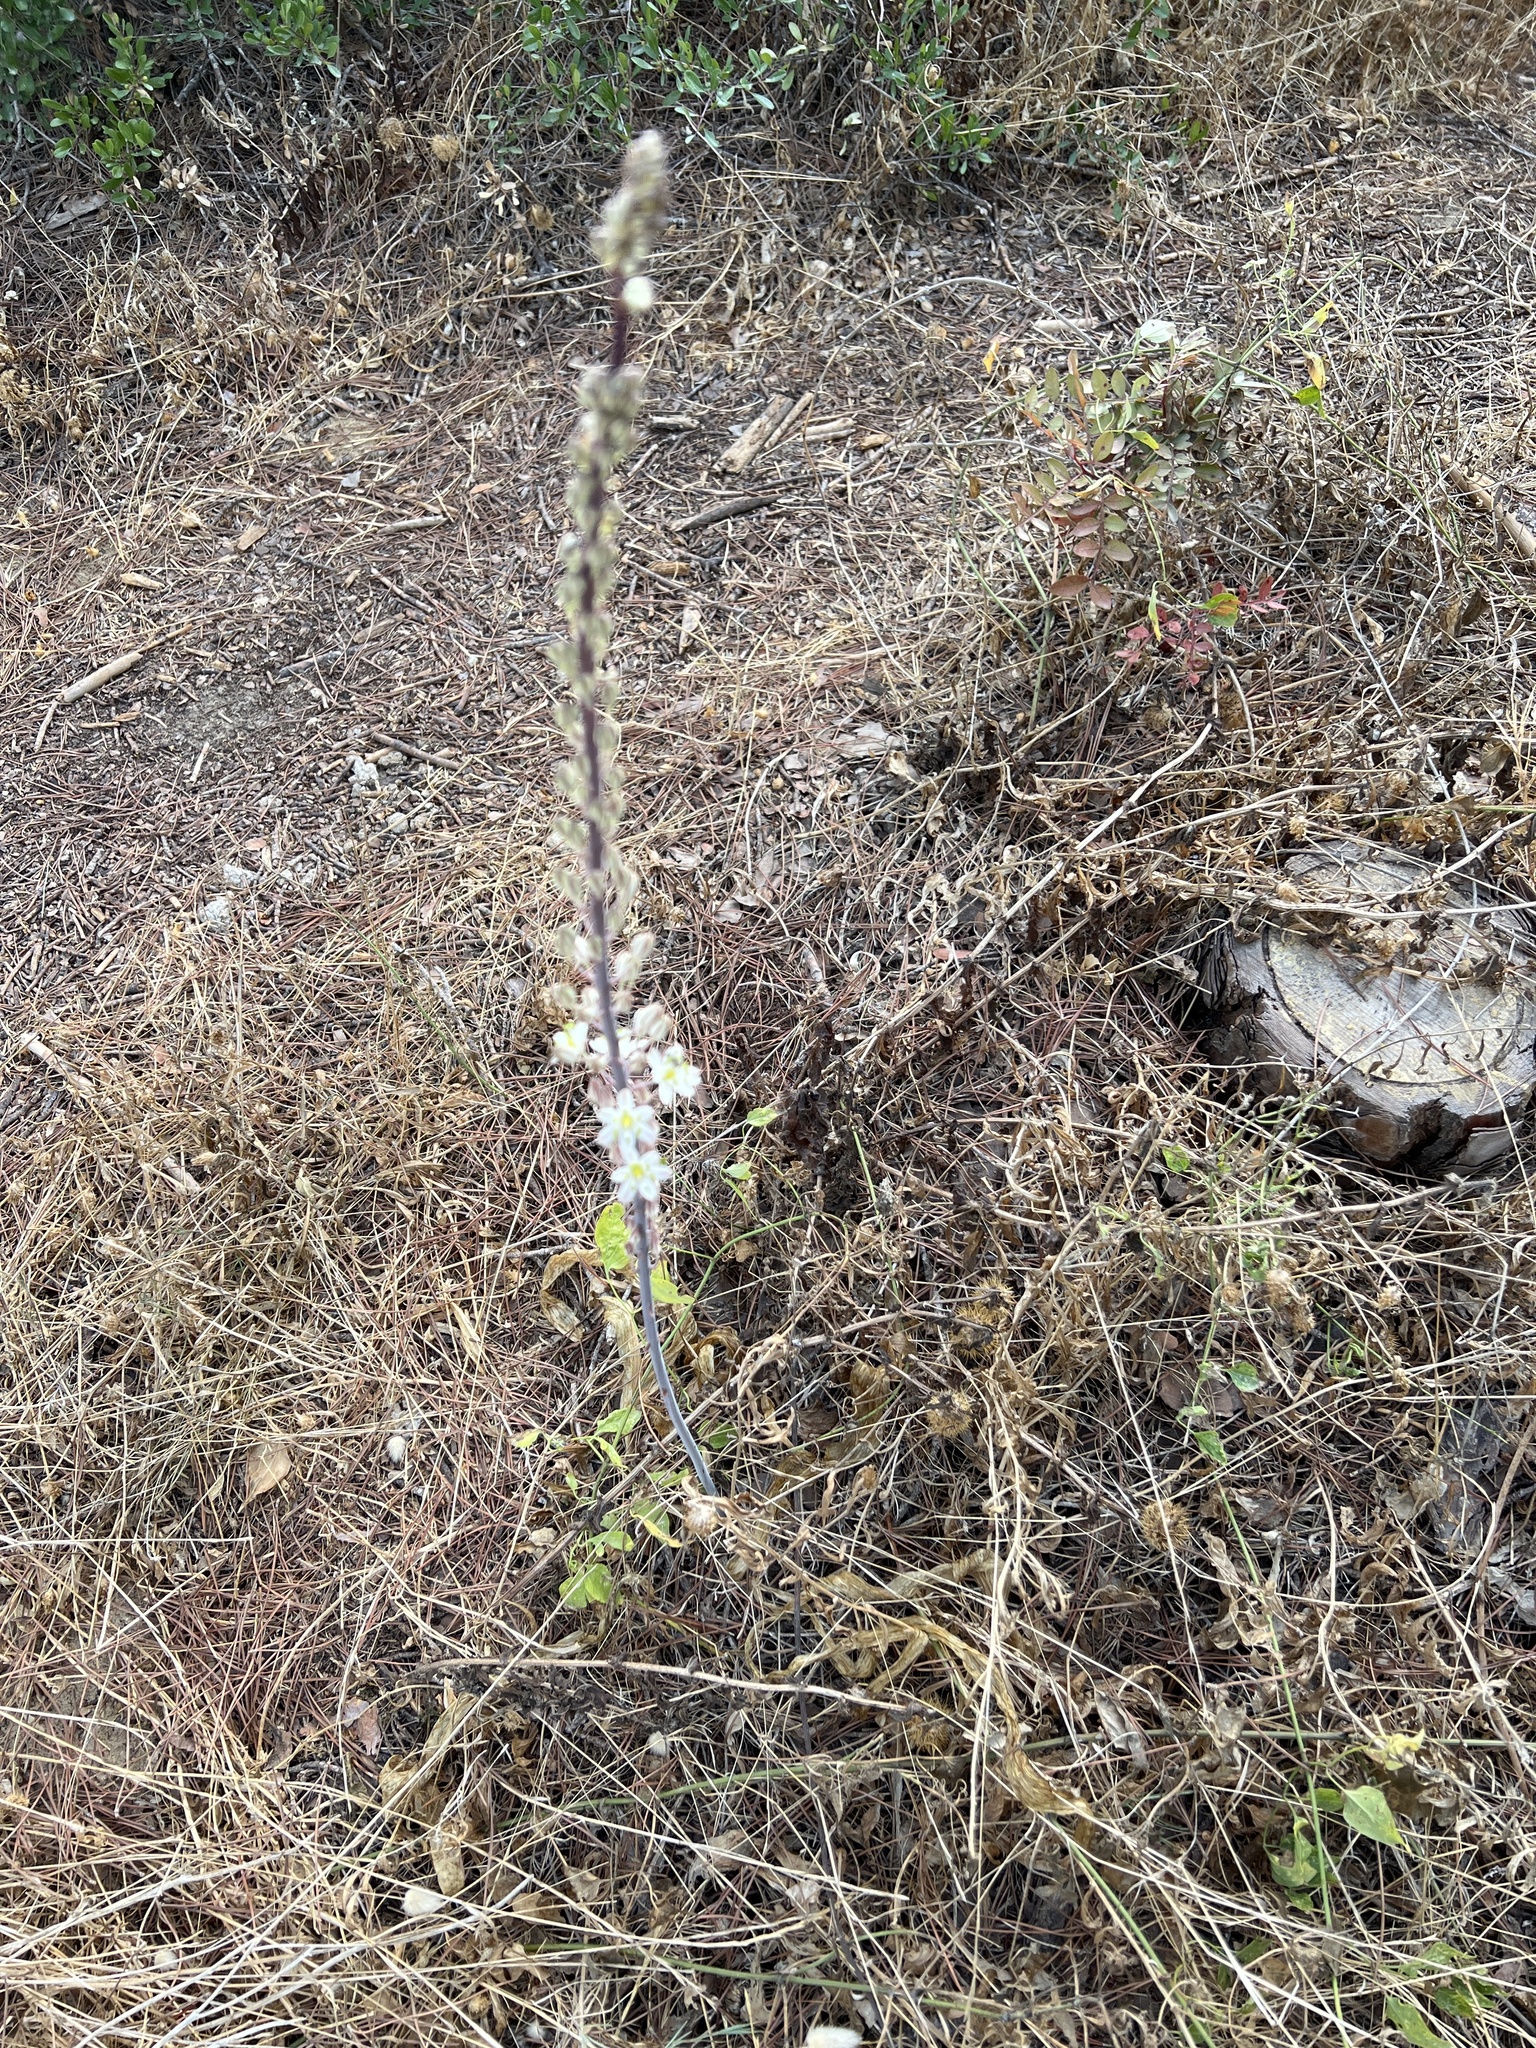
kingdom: Plantae
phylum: Tracheophyta
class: Liliopsida
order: Asparagales
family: Asparagaceae
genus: Drimia
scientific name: Drimia maritima
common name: Maritime squill
